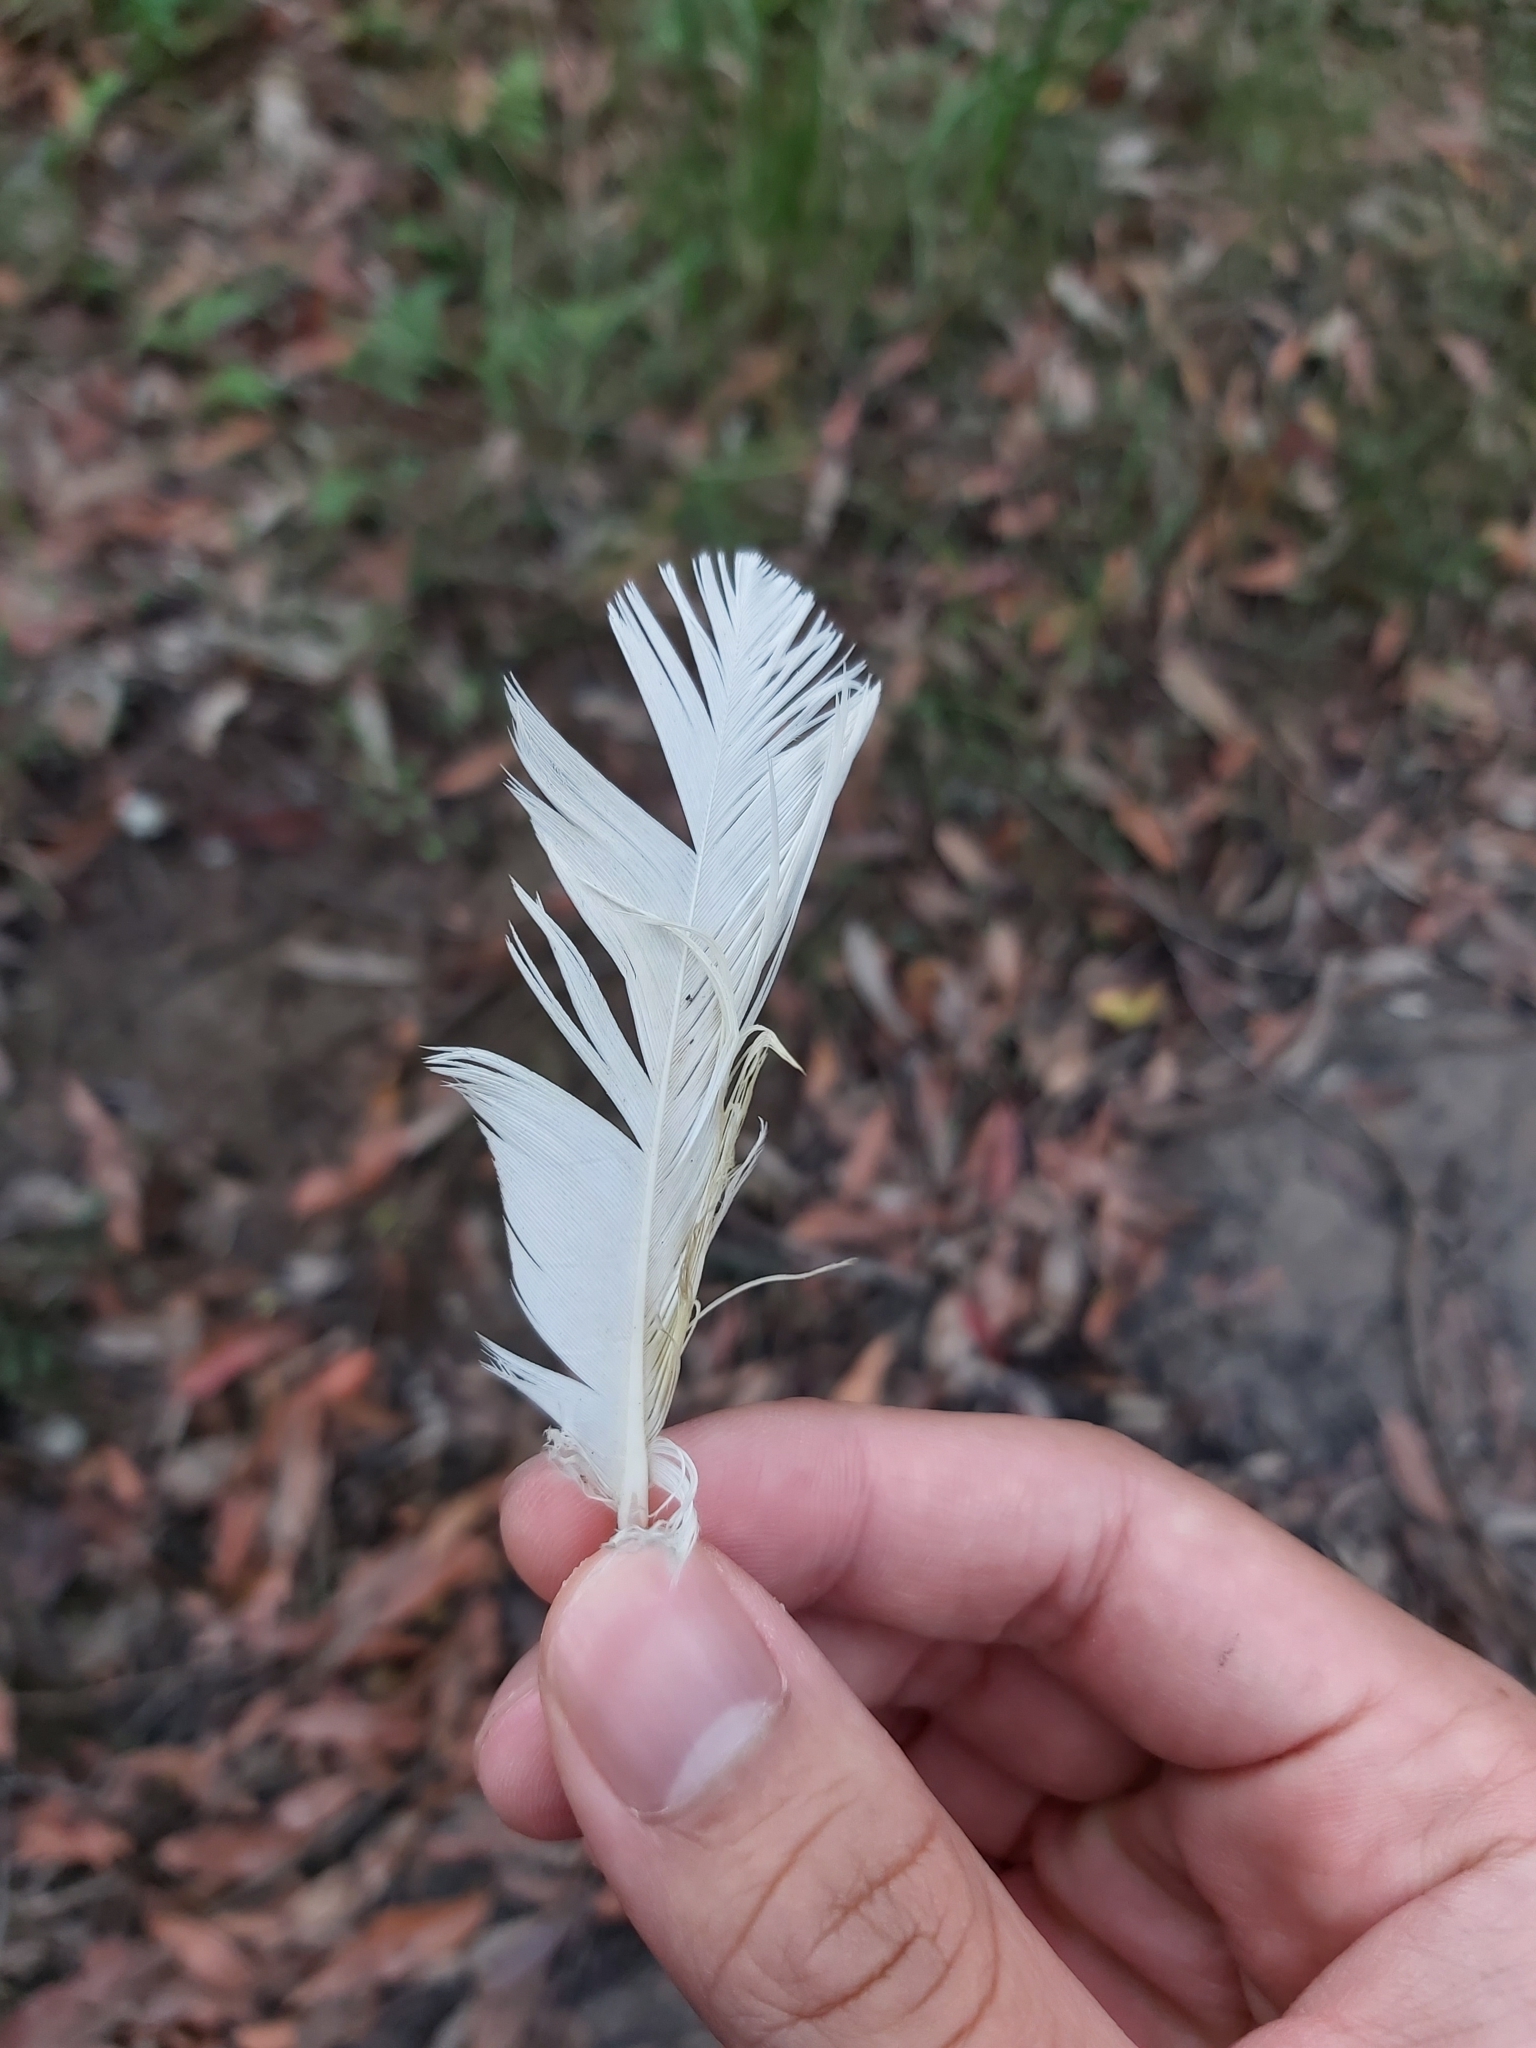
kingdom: Animalia
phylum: Chordata
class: Aves
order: Psittaciformes
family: Psittacidae
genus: Cacatua
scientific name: Cacatua galerita
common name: Sulphur-crested cockatoo
